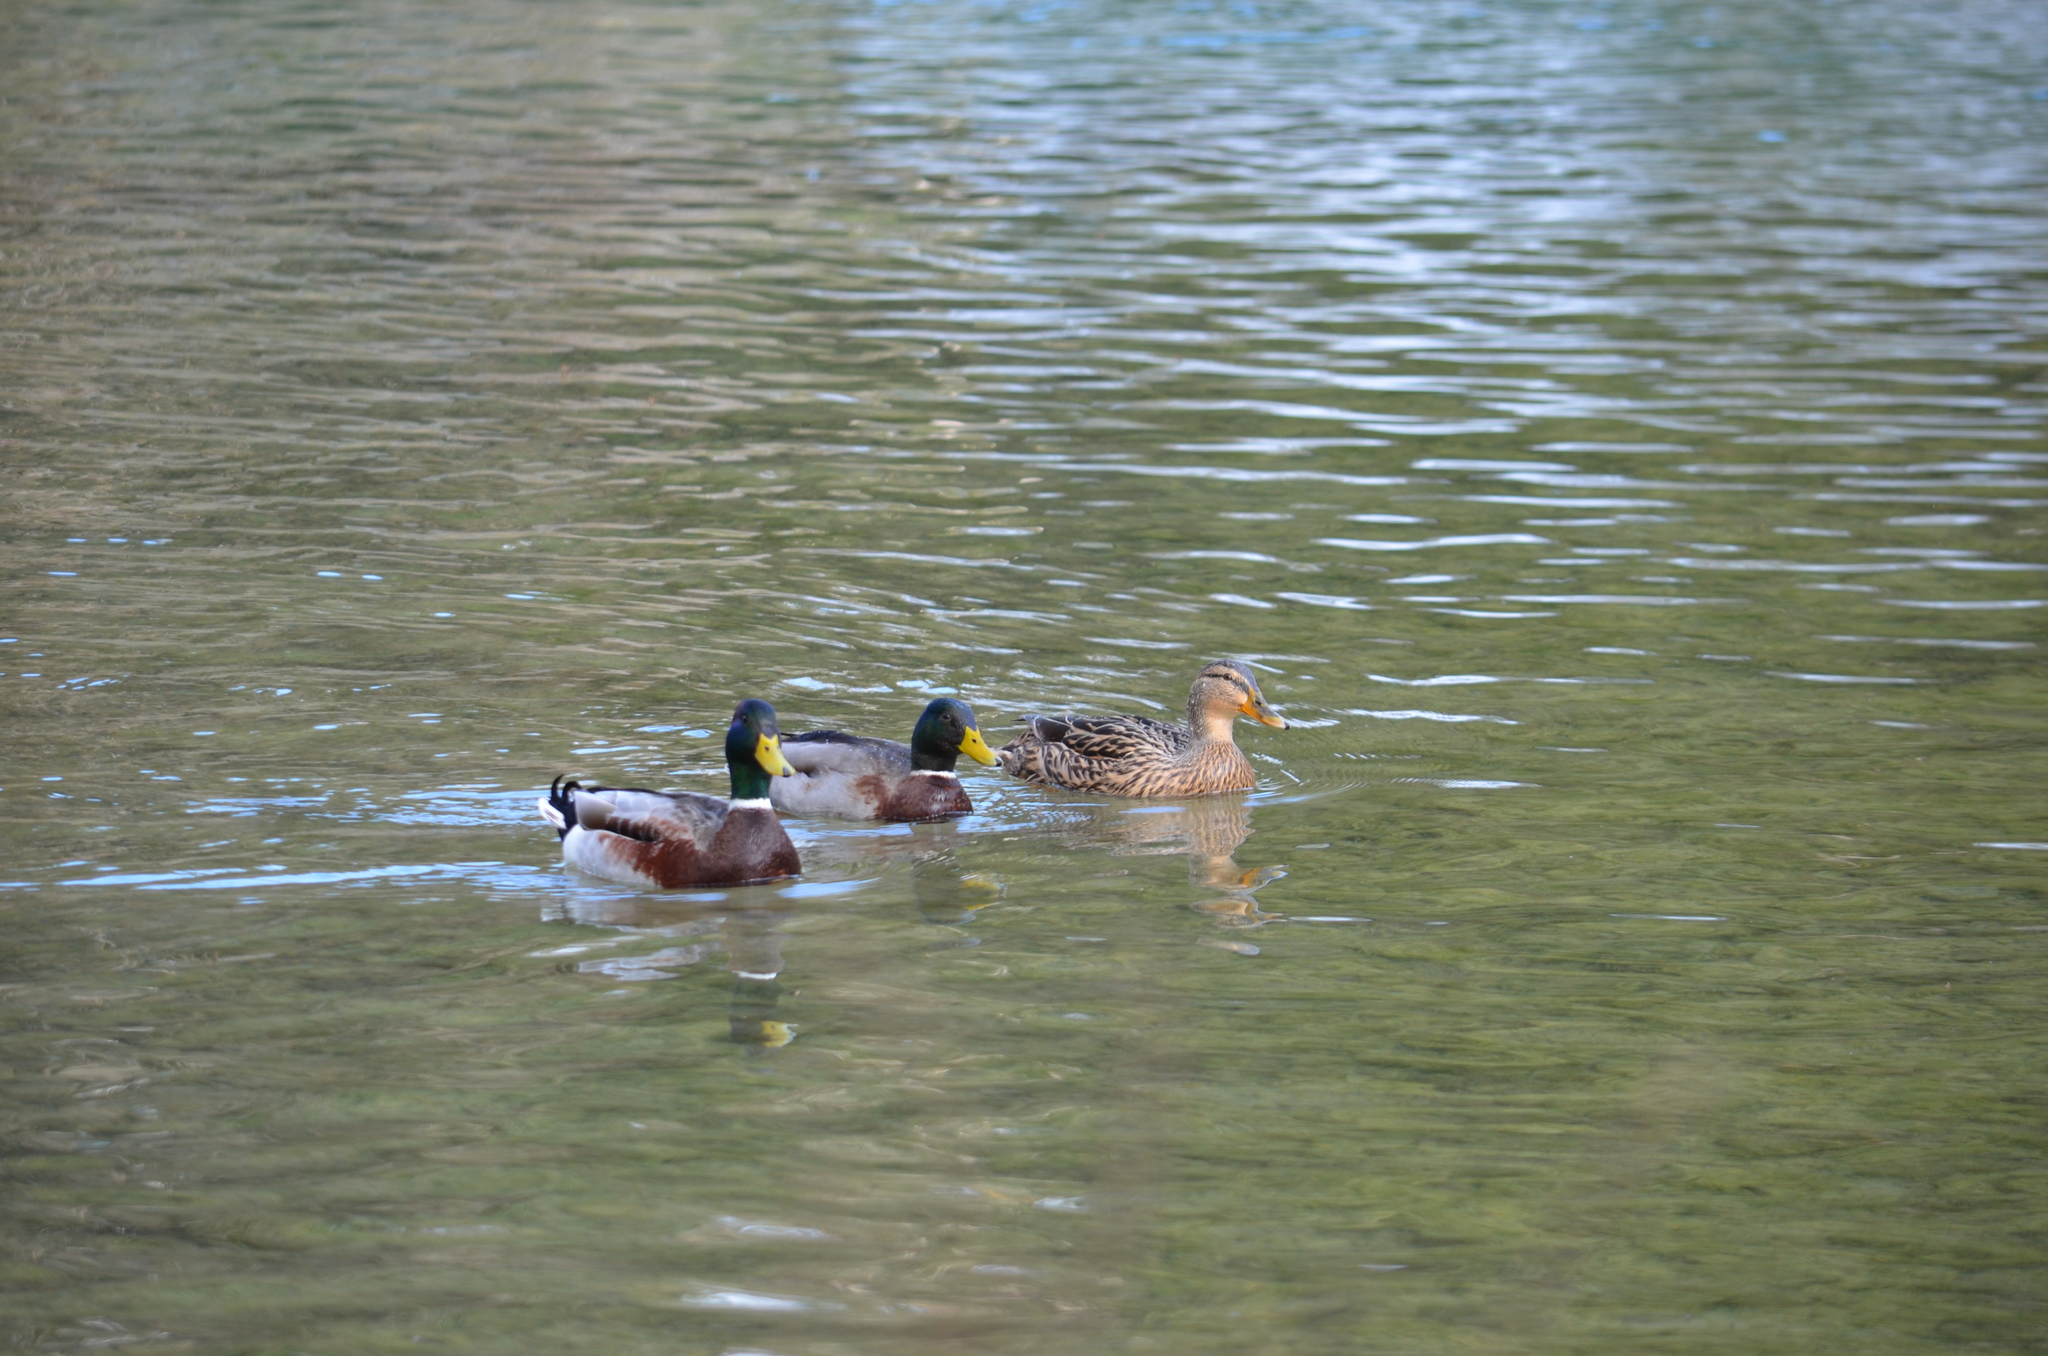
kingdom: Animalia
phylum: Chordata
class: Aves
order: Anseriformes
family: Anatidae
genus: Anas
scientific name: Anas platyrhynchos
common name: Mallard
